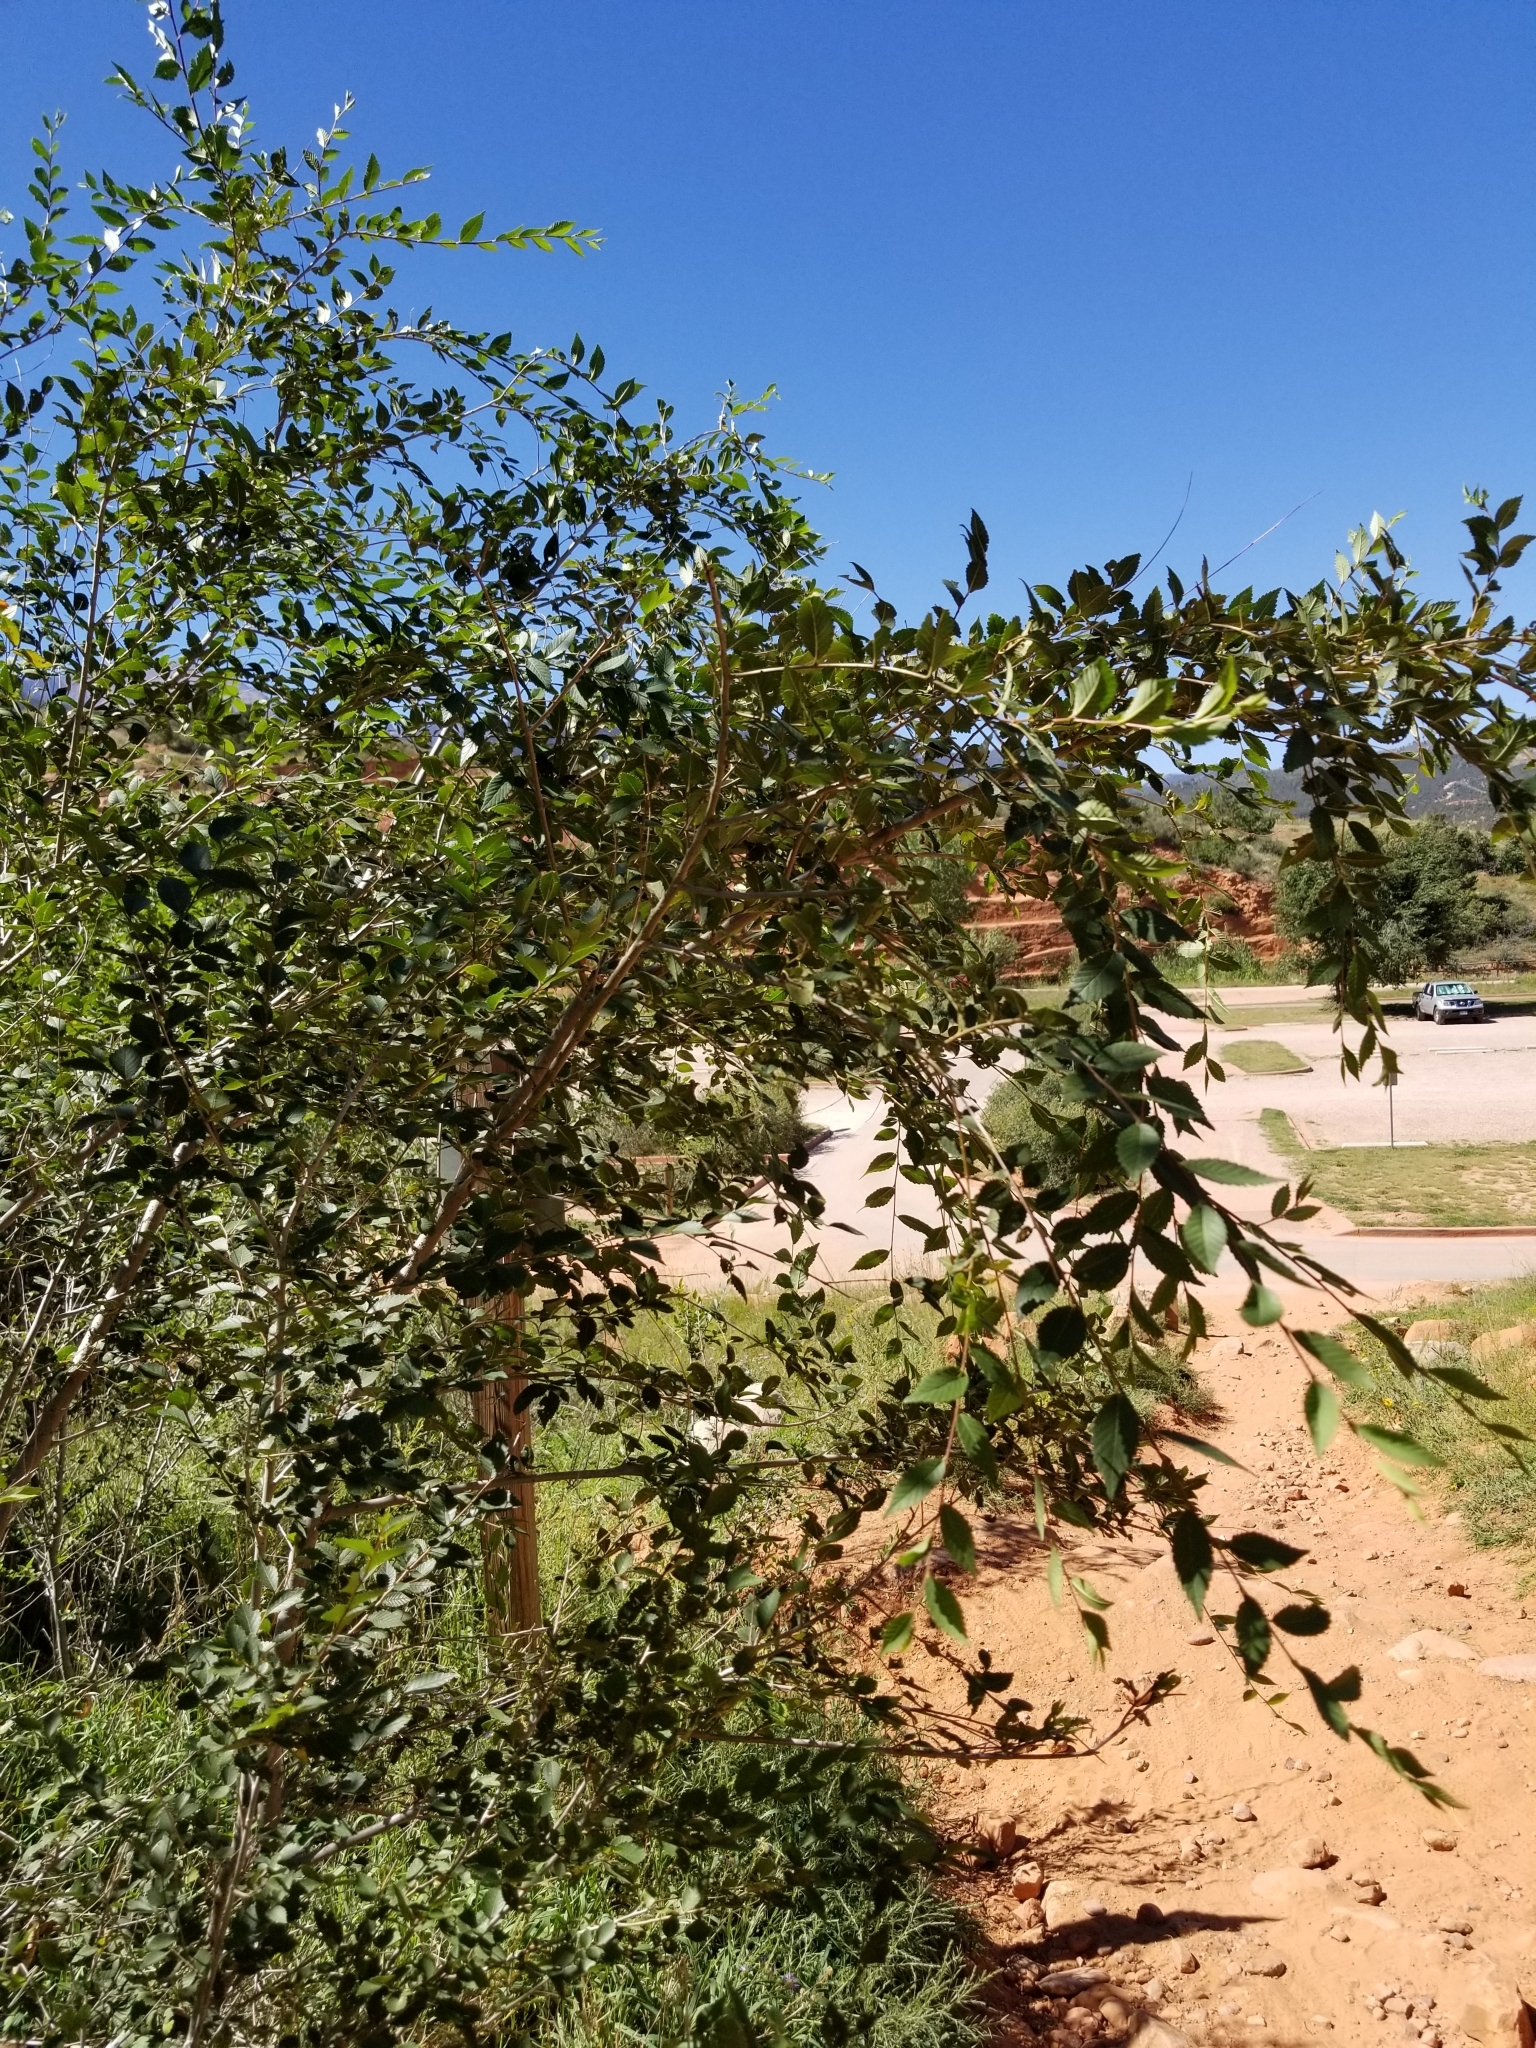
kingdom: Plantae
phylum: Tracheophyta
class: Magnoliopsida
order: Rosales
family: Ulmaceae
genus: Ulmus
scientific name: Ulmus pumila
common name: Siberian elm
